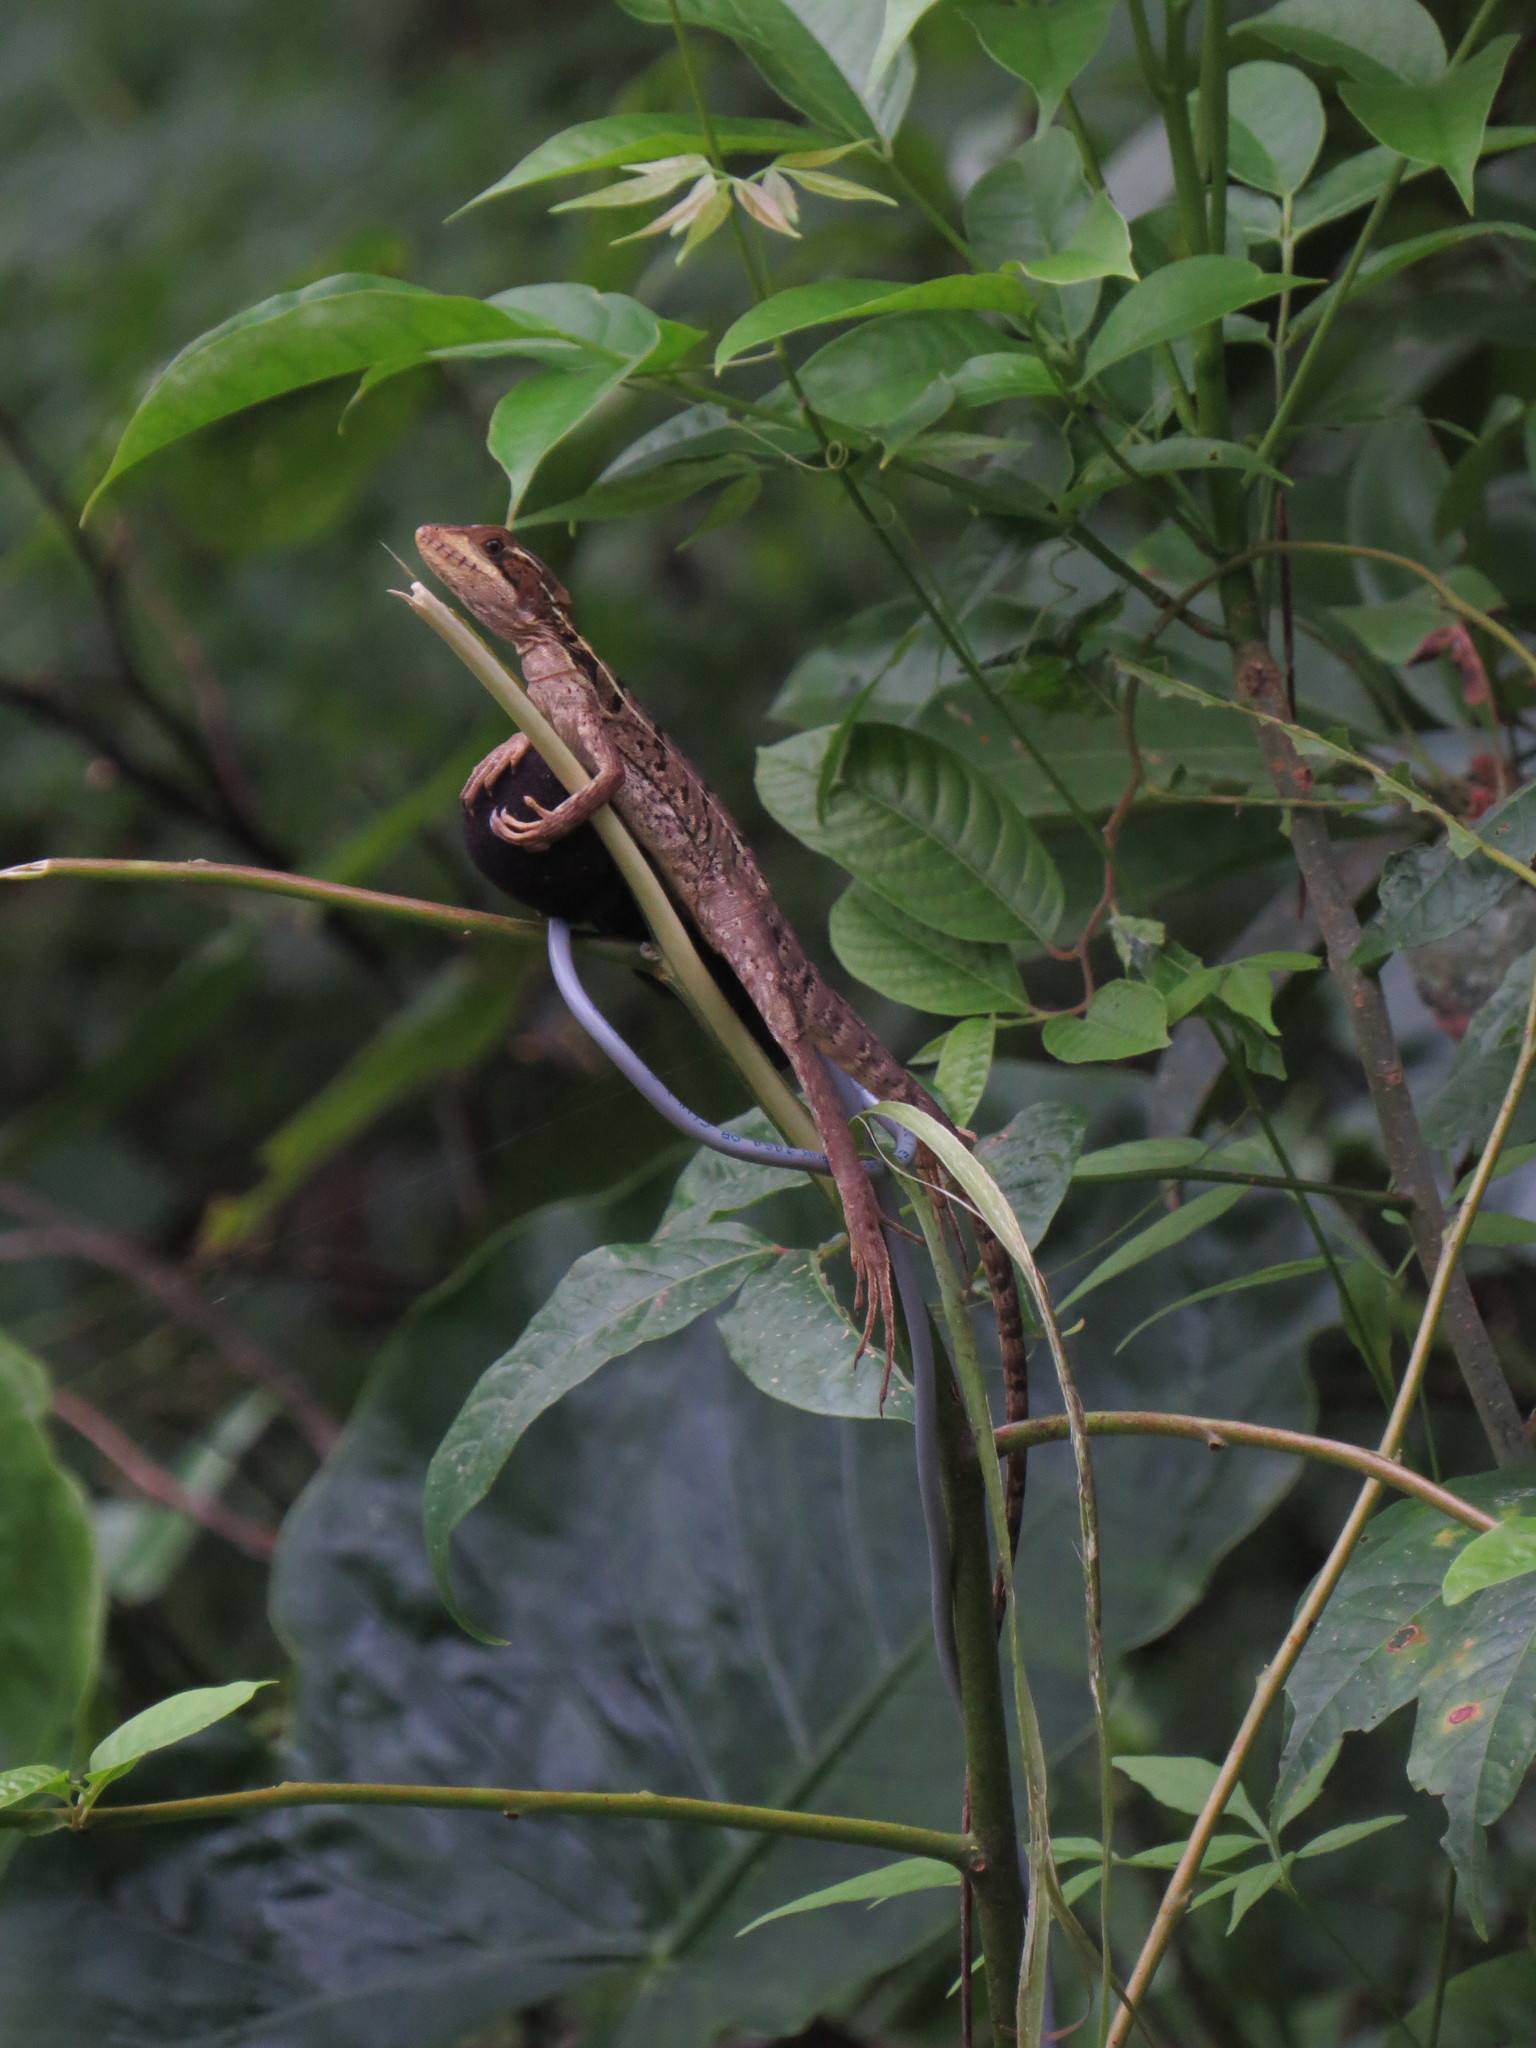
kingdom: Animalia
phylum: Chordata
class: Squamata
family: Corytophanidae
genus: Basiliscus
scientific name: Basiliscus vittatus
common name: Brown basilisk
